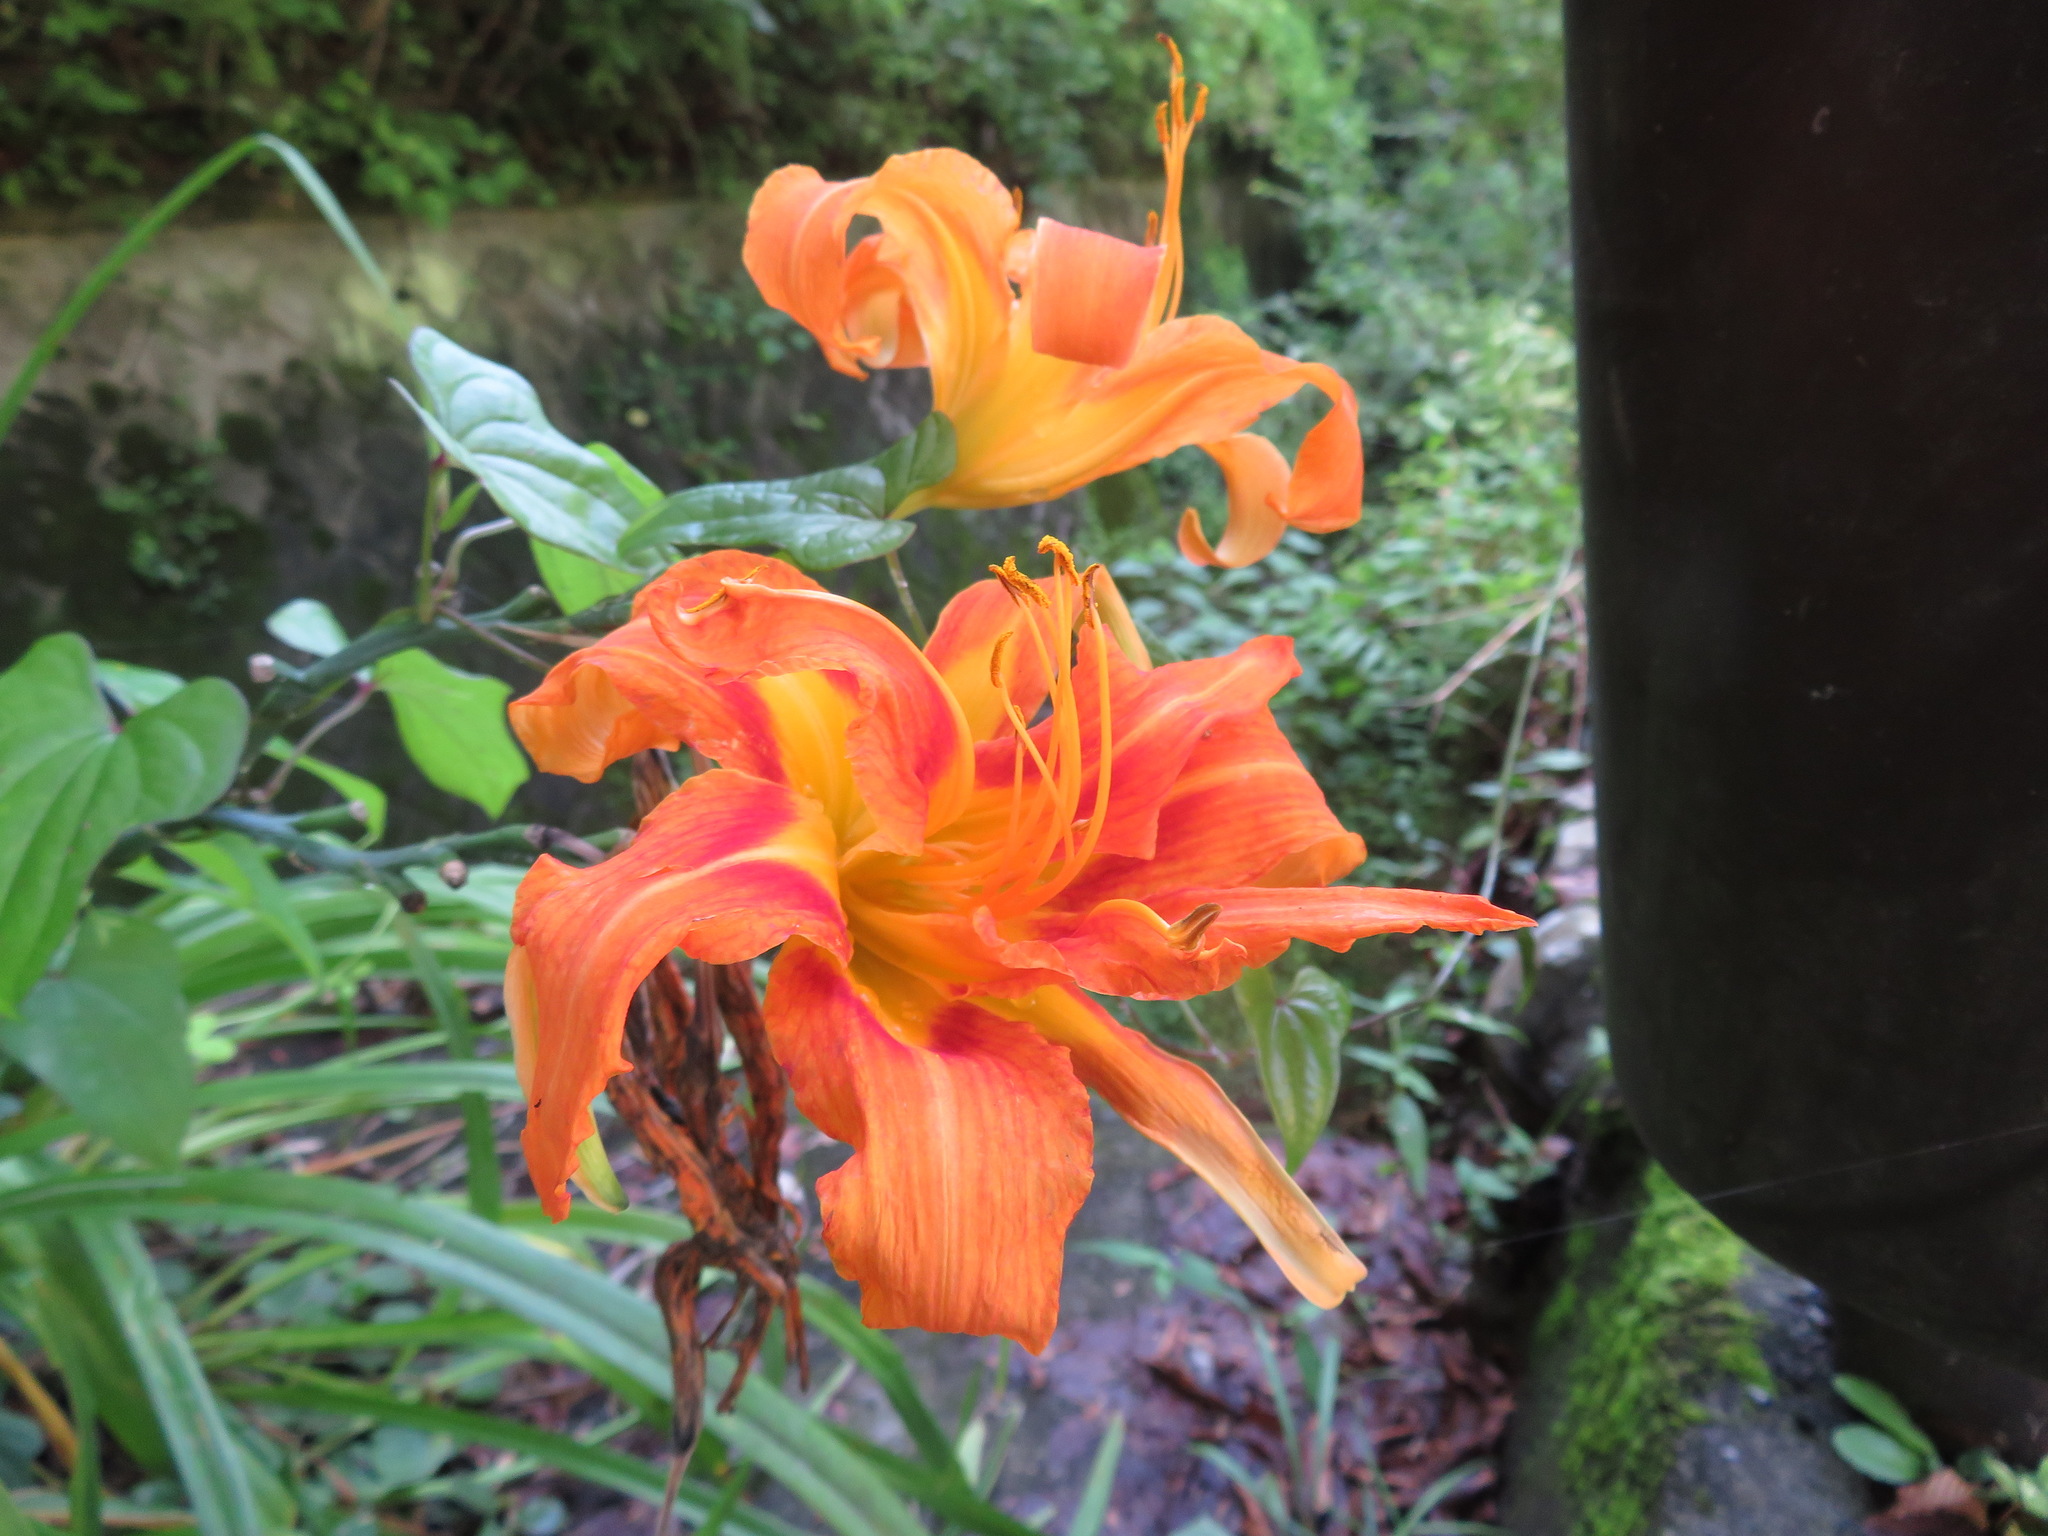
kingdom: Plantae
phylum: Tracheophyta
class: Liliopsida
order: Asparagales
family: Asphodelaceae
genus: Hemerocallis
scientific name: Hemerocallis fulva
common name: Orange day-lily
